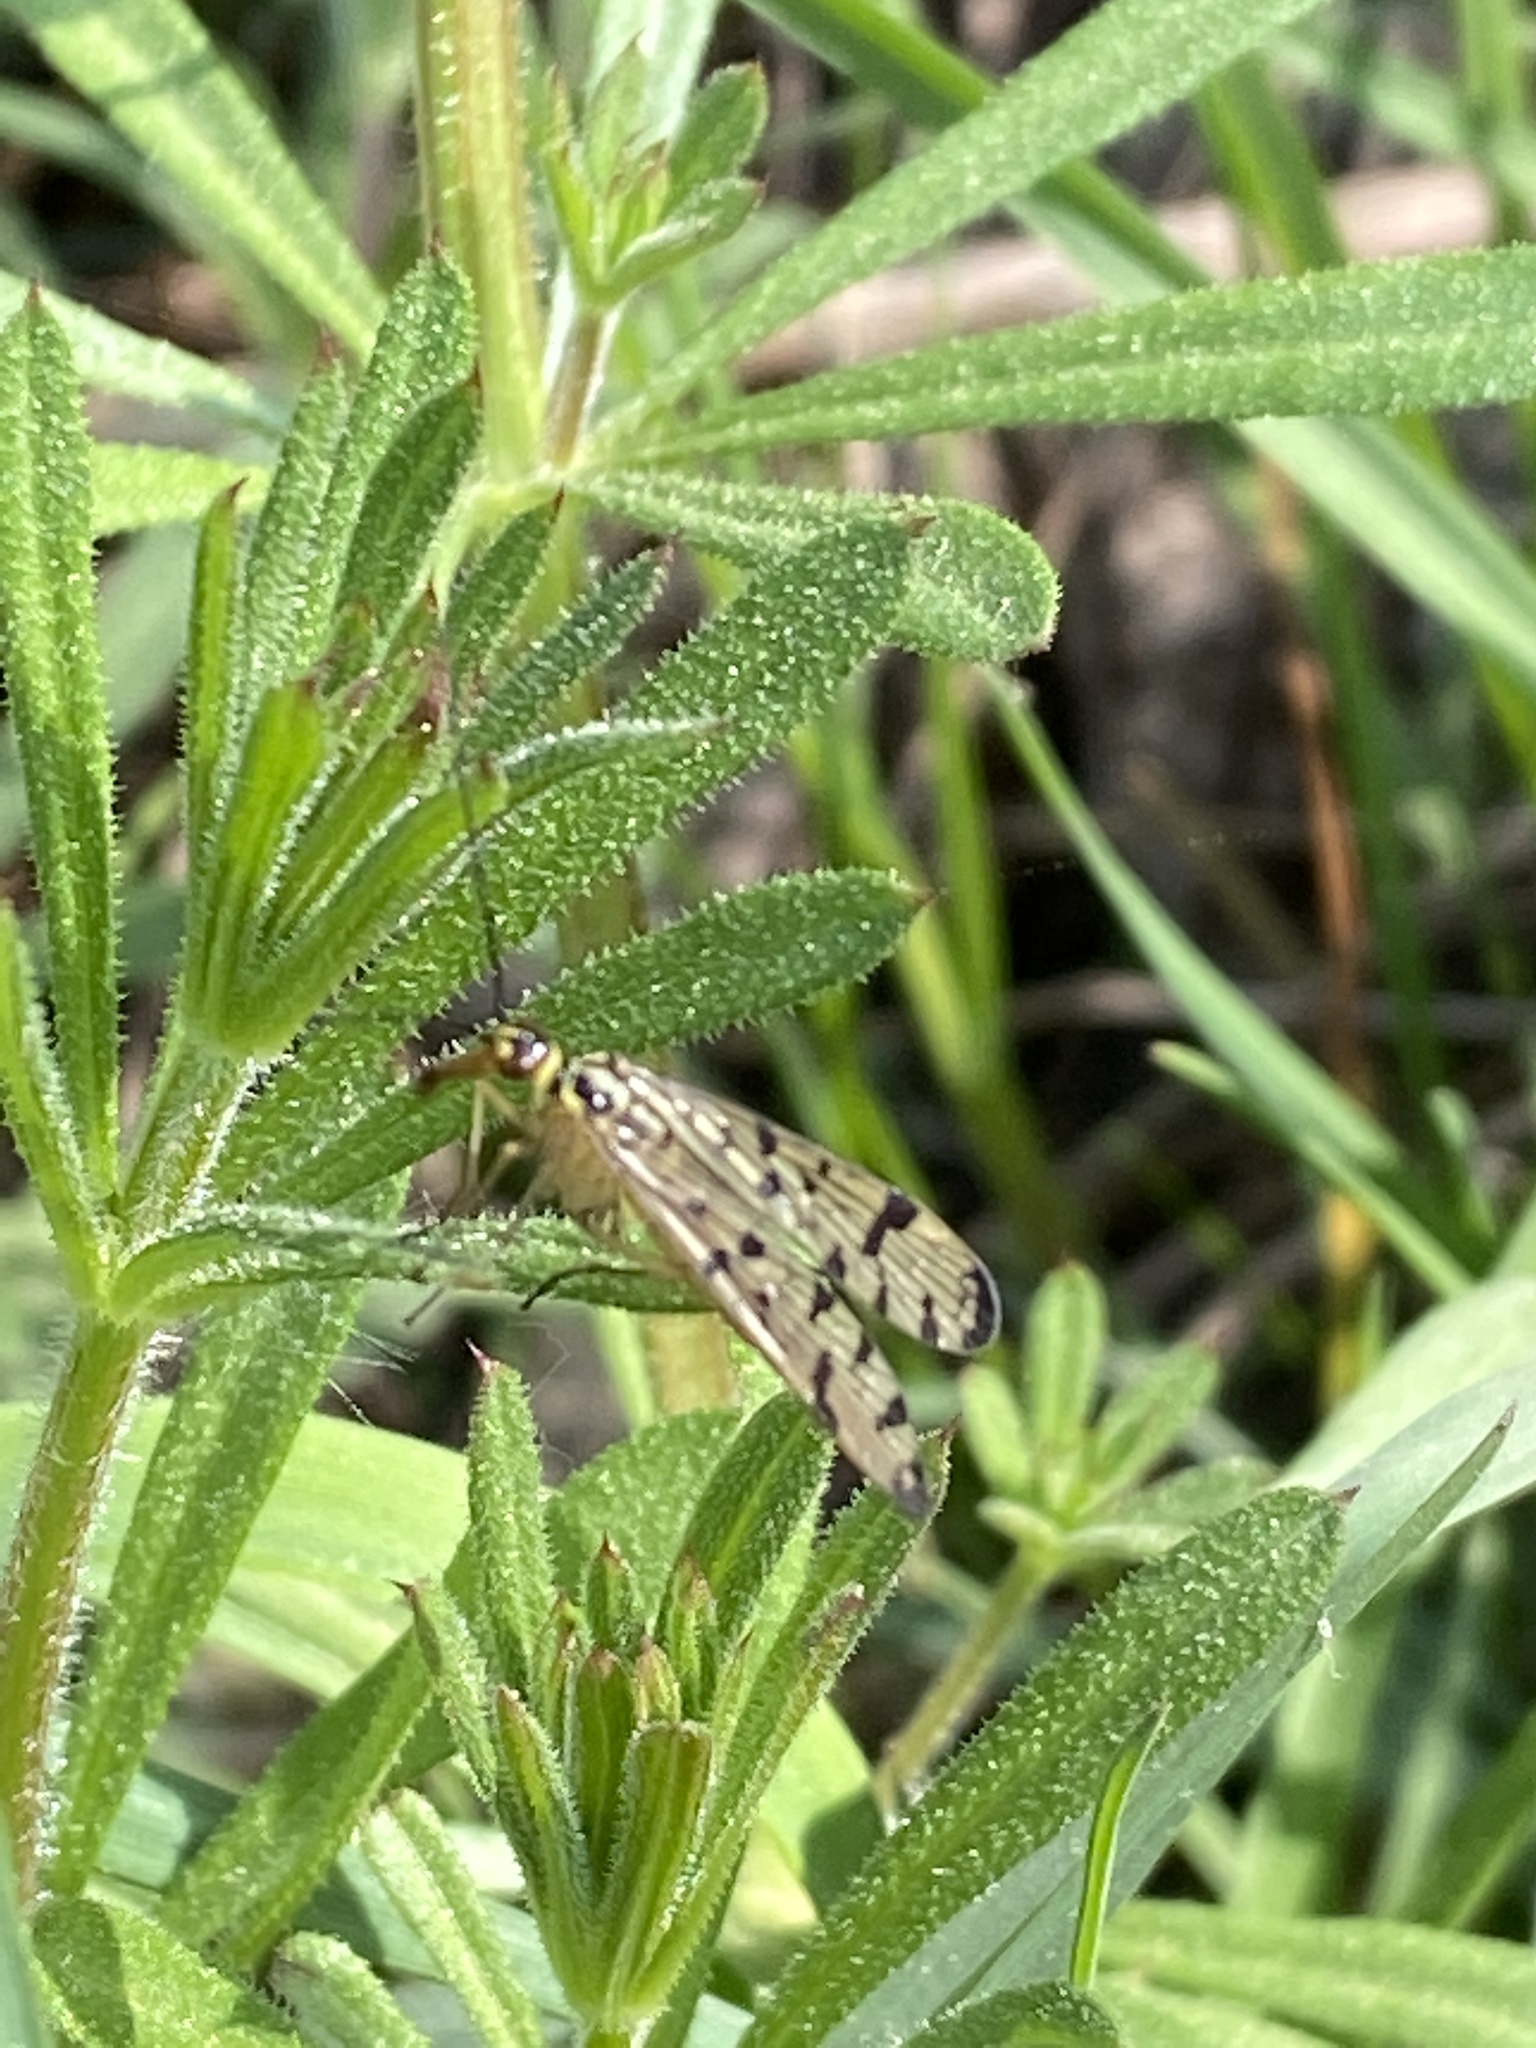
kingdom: Animalia
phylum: Arthropoda
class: Insecta
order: Mecoptera
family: Panorpidae
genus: Panorpa
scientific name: Panorpa germanica
